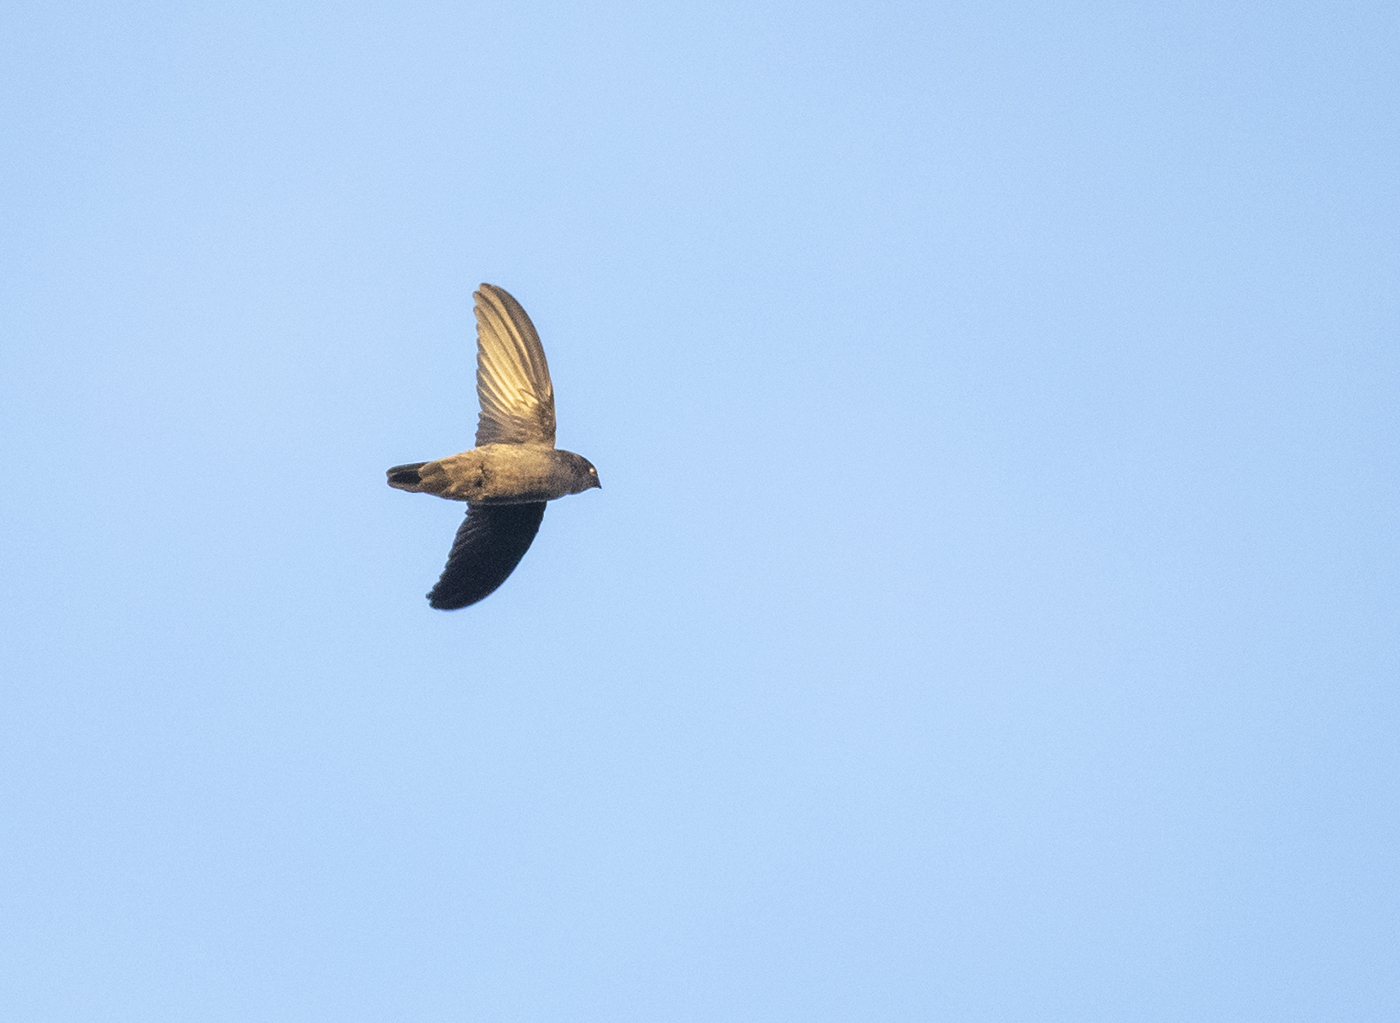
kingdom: Animalia
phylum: Chordata
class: Aves
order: Apodiformes
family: Apodidae
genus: Aerodramus
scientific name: Aerodramus unicolor
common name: Indian swiftlet
